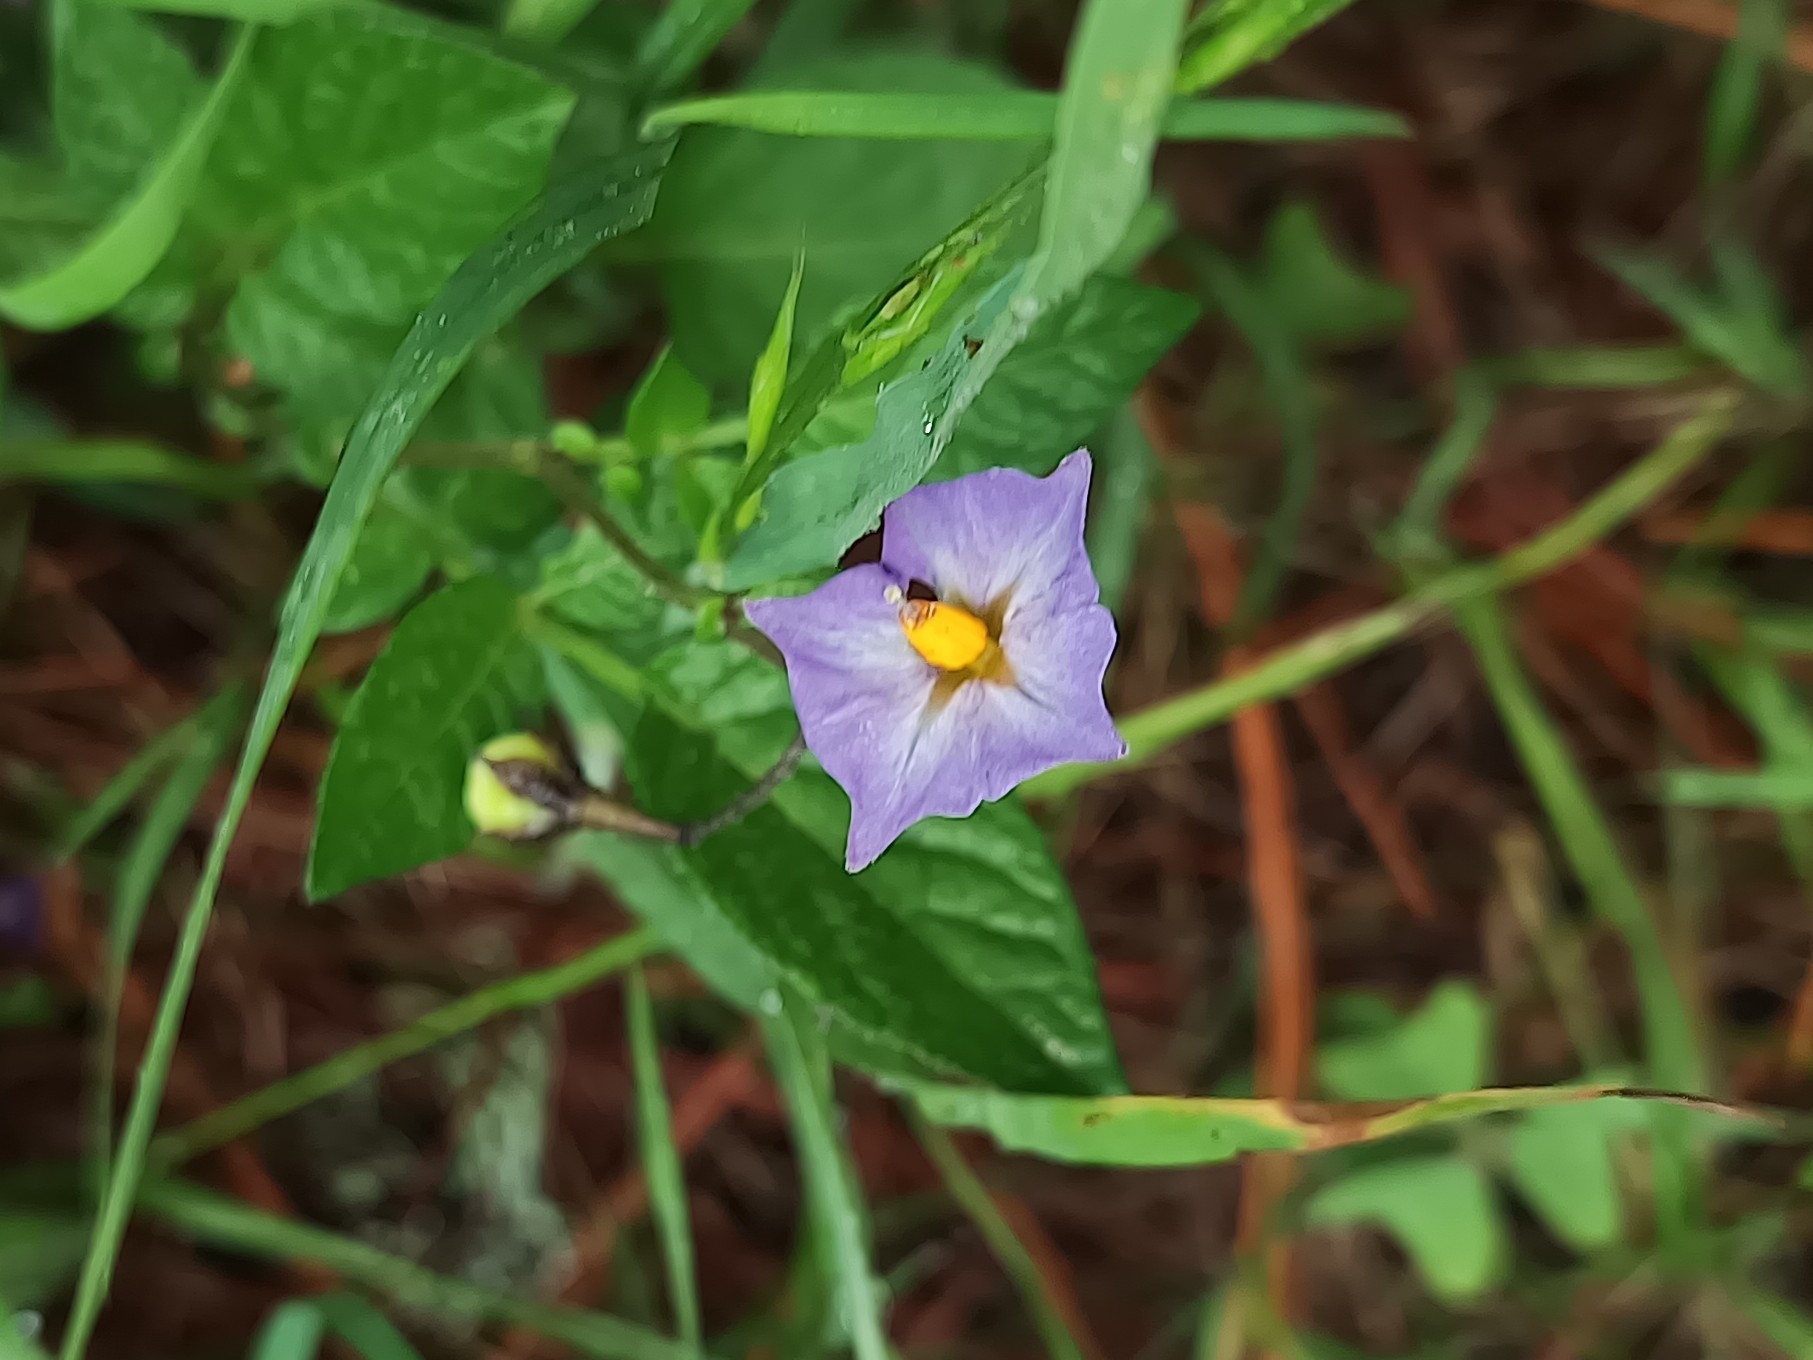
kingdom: Plantae
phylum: Tracheophyta
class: Magnoliopsida
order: Solanales
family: Solanaceae
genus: Solanum
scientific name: Solanum stoloniferum
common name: Fendler's nighshade
